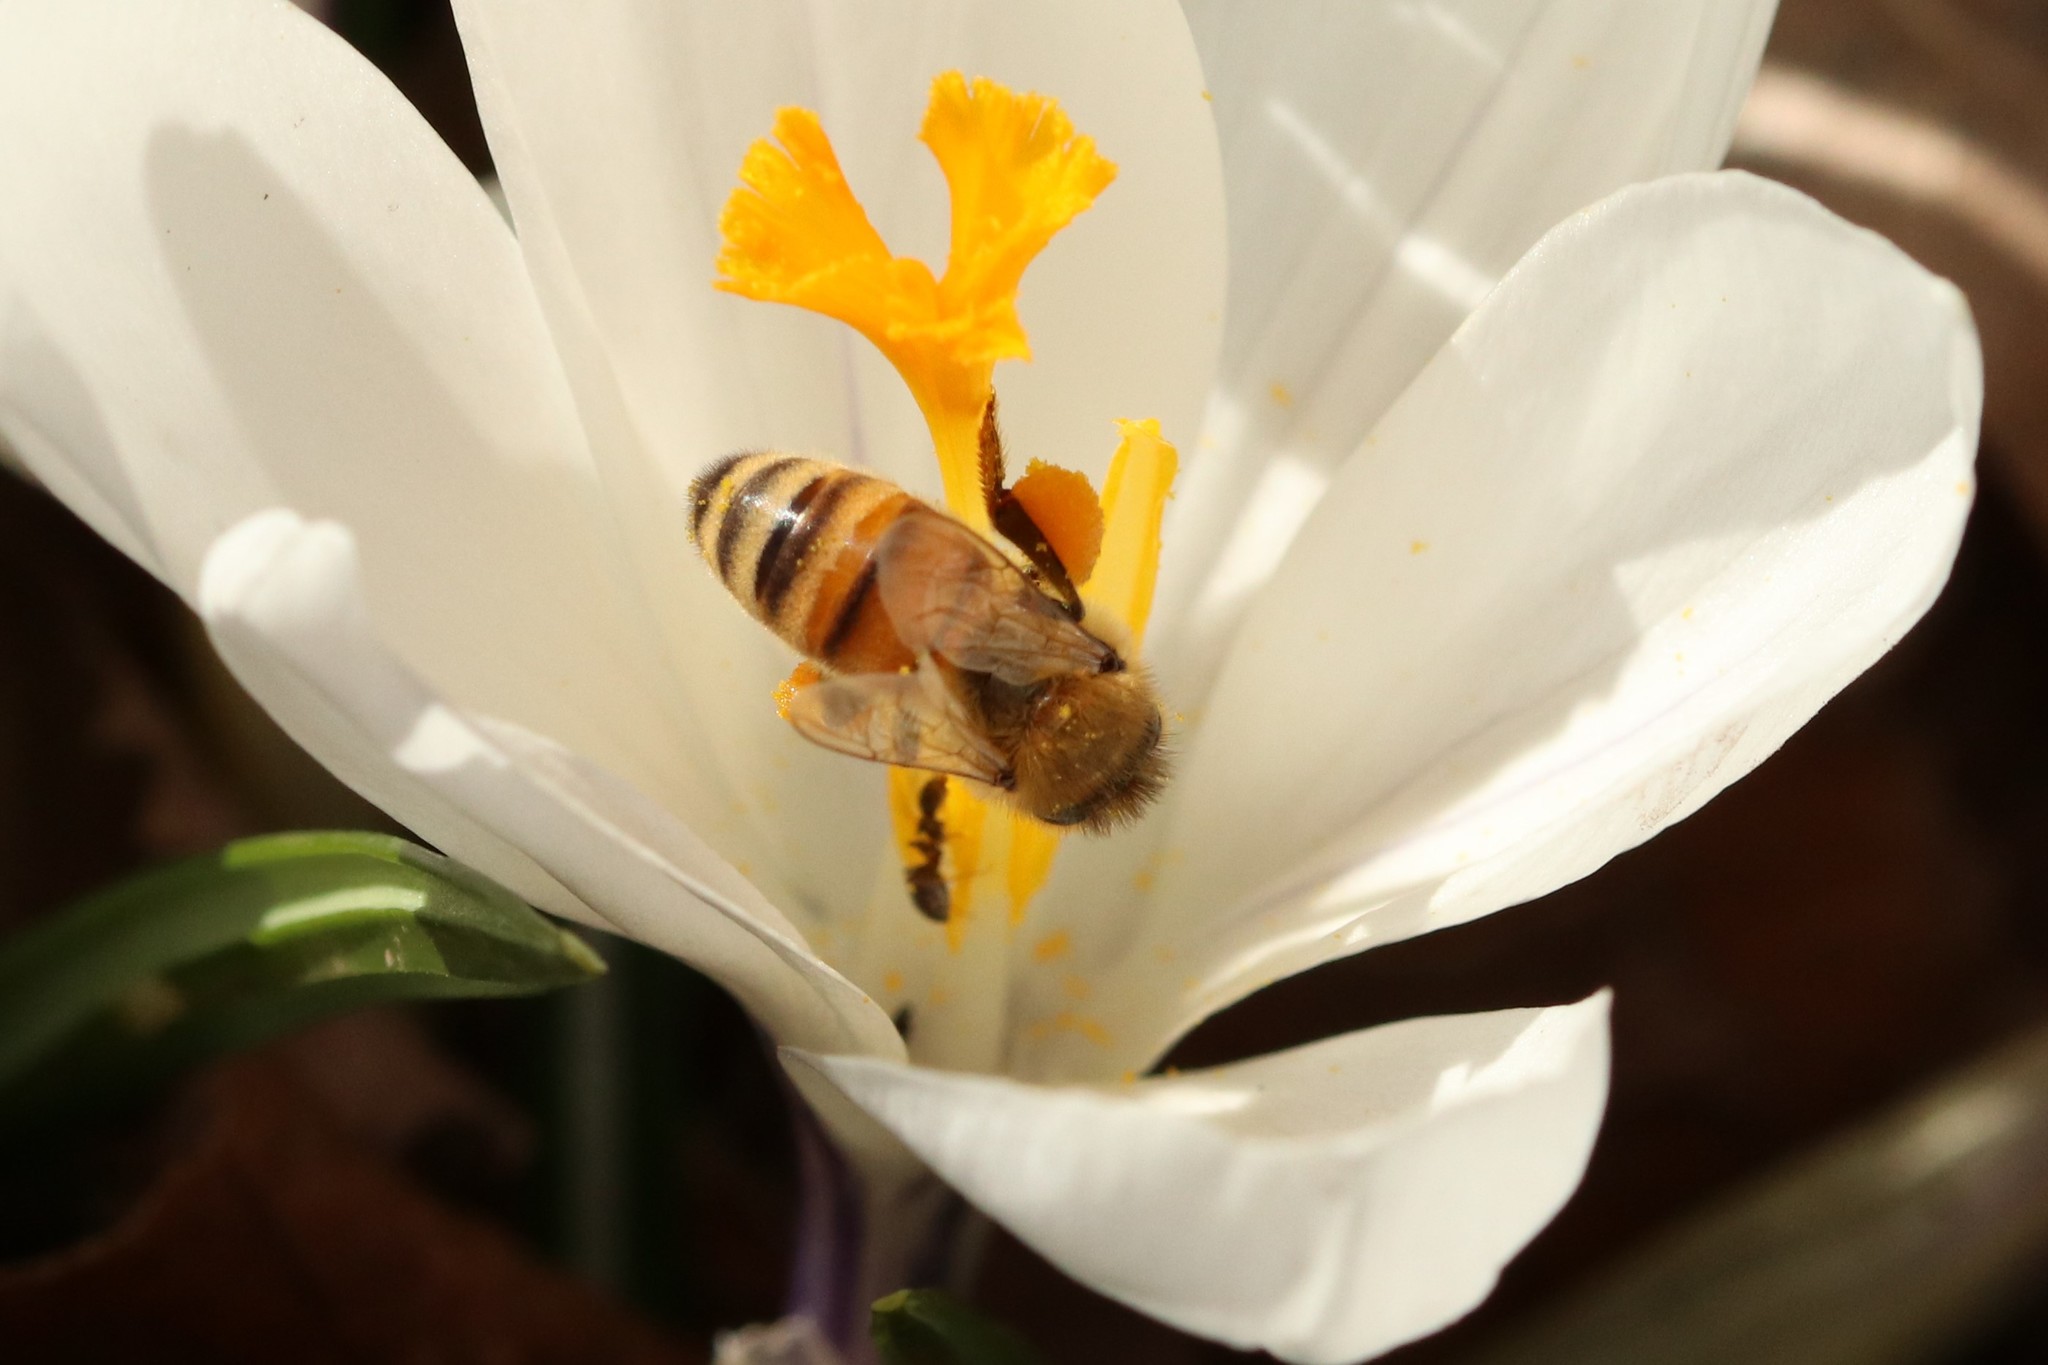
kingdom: Animalia
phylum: Arthropoda
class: Insecta
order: Hymenoptera
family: Apidae
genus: Apis
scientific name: Apis mellifera
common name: Honey bee
